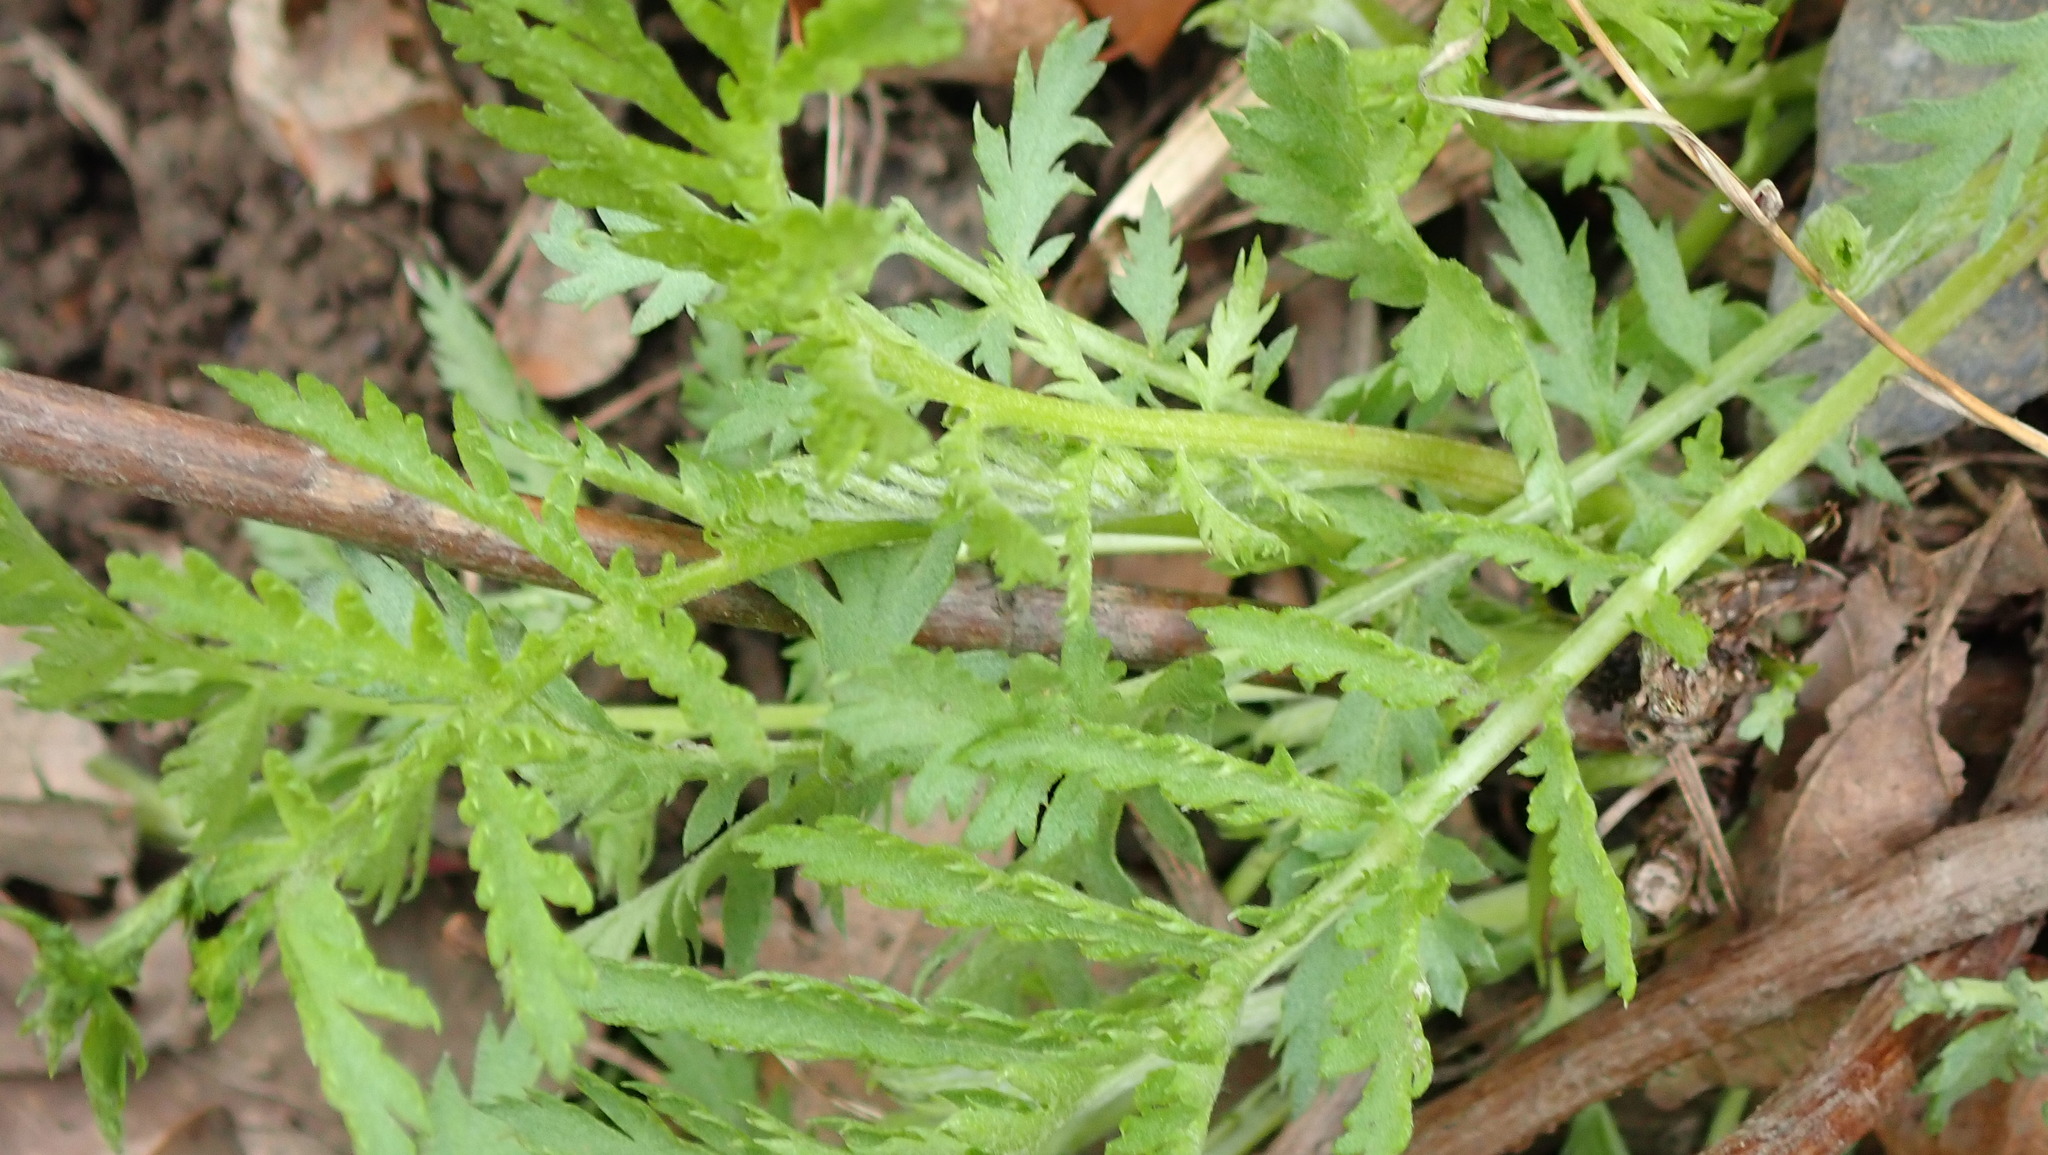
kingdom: Plantae
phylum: Tracheophyta
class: Magnoliopsida
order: Asterales
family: Asteraceae
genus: Tanacetum
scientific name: Tanacetum vulgare
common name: Common tansy
